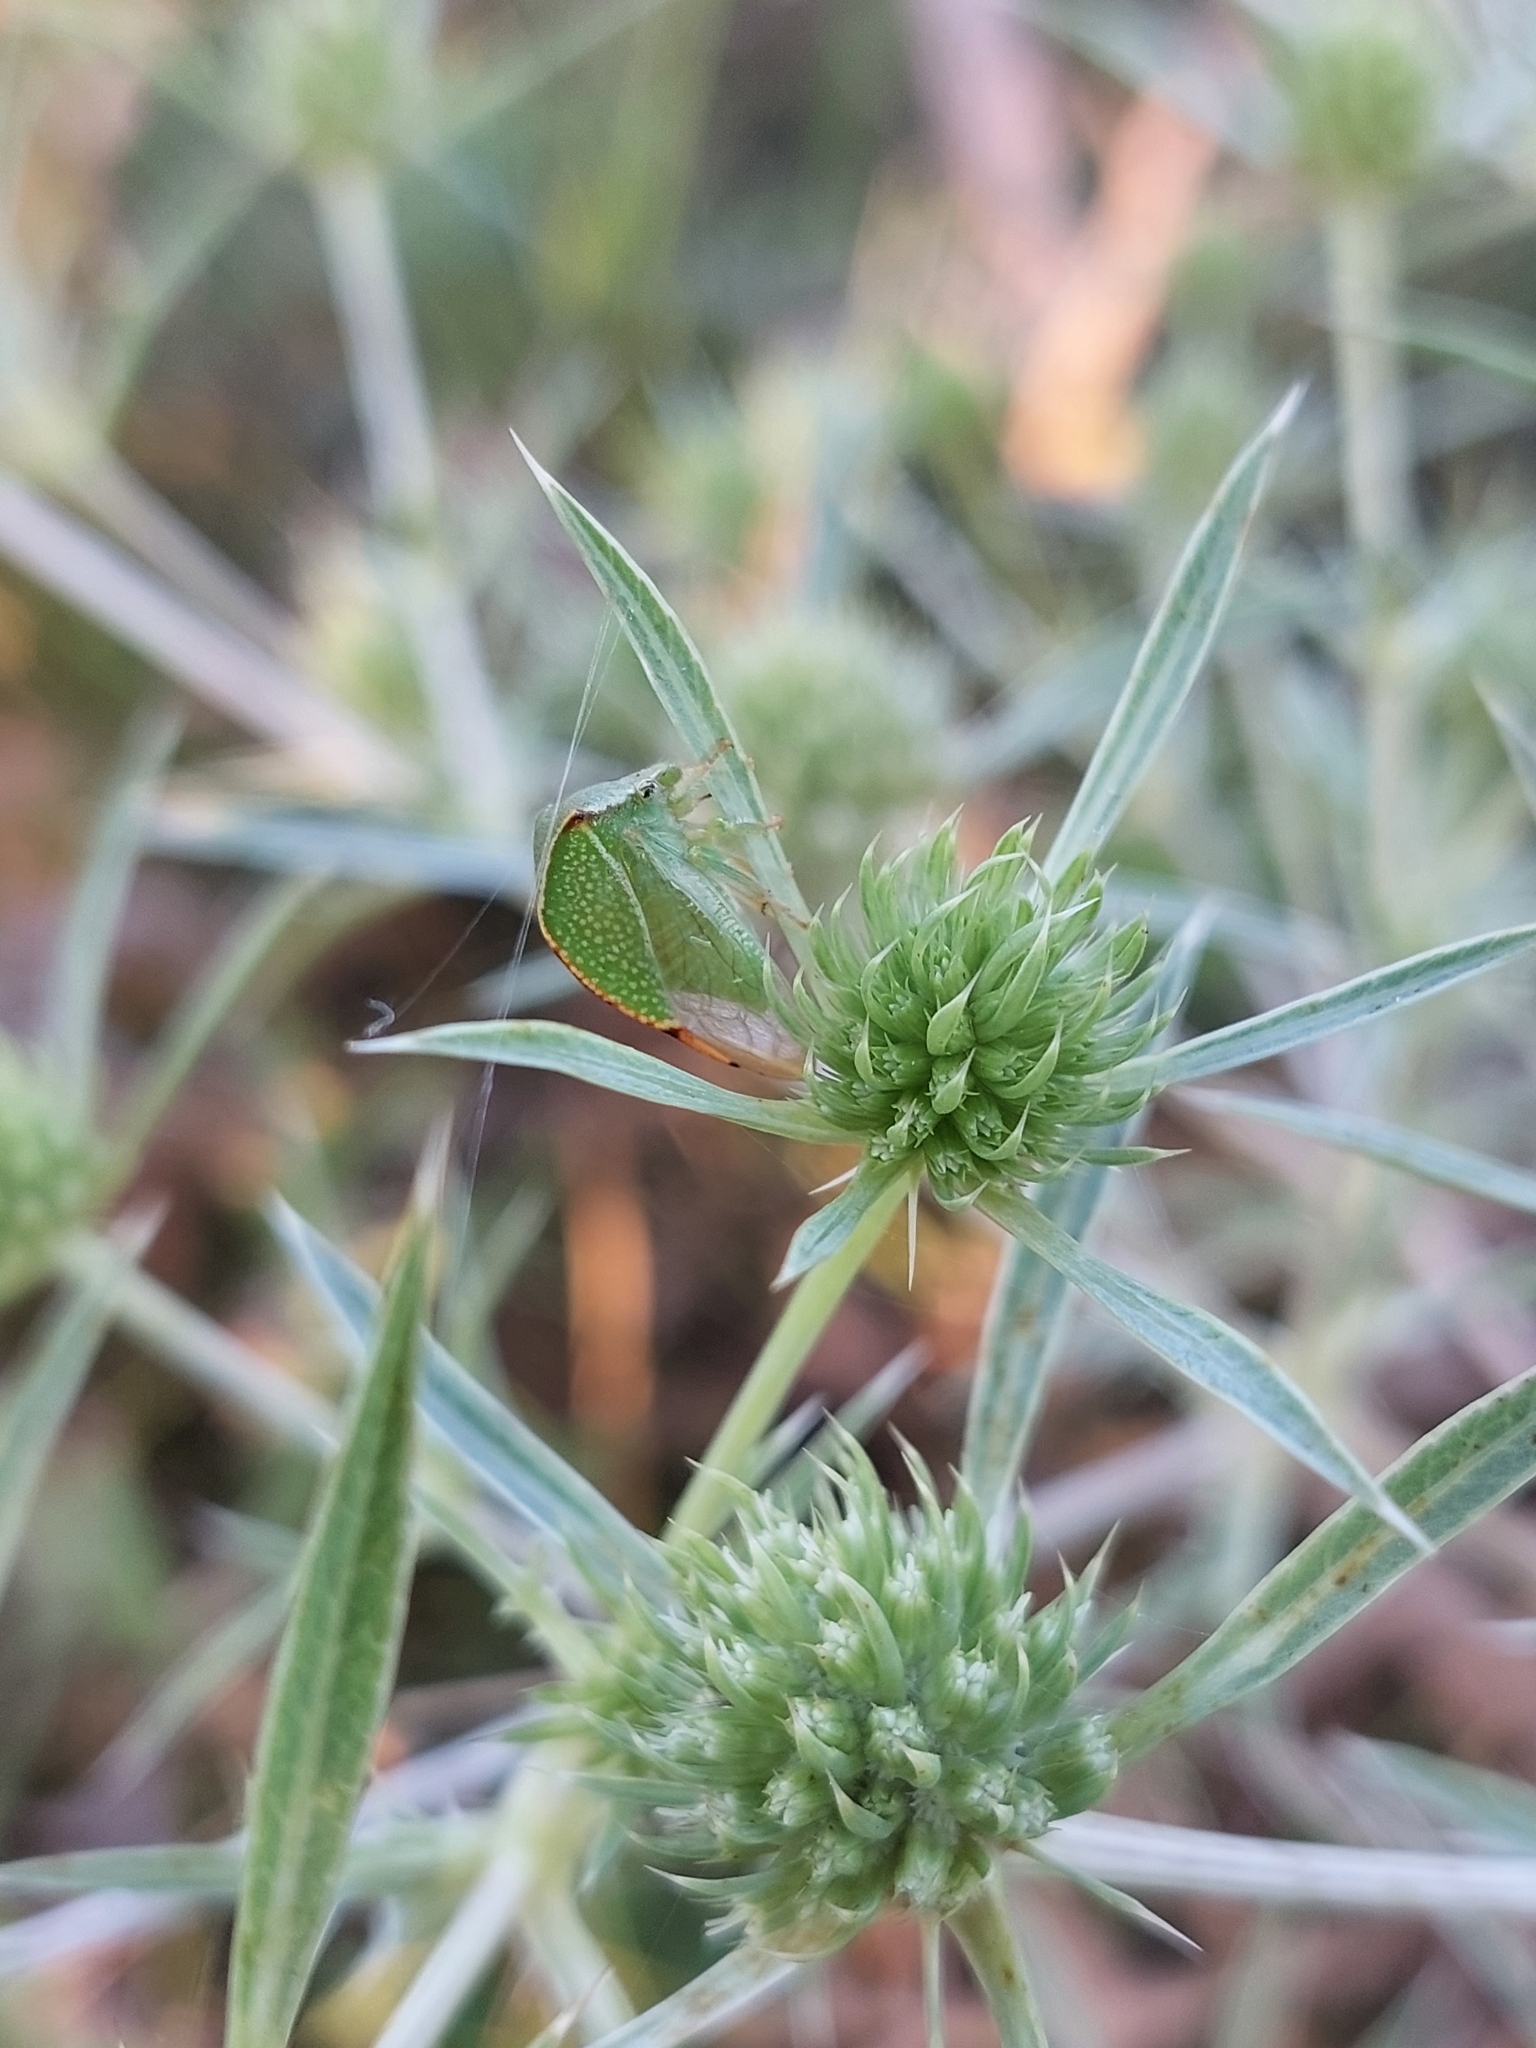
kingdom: Animalia
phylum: Arthropoda
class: Insecta
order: Hemiptera
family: Membracidae
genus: Stictocephala
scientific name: Stictocephala bisonia
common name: American buffalo treehopper
